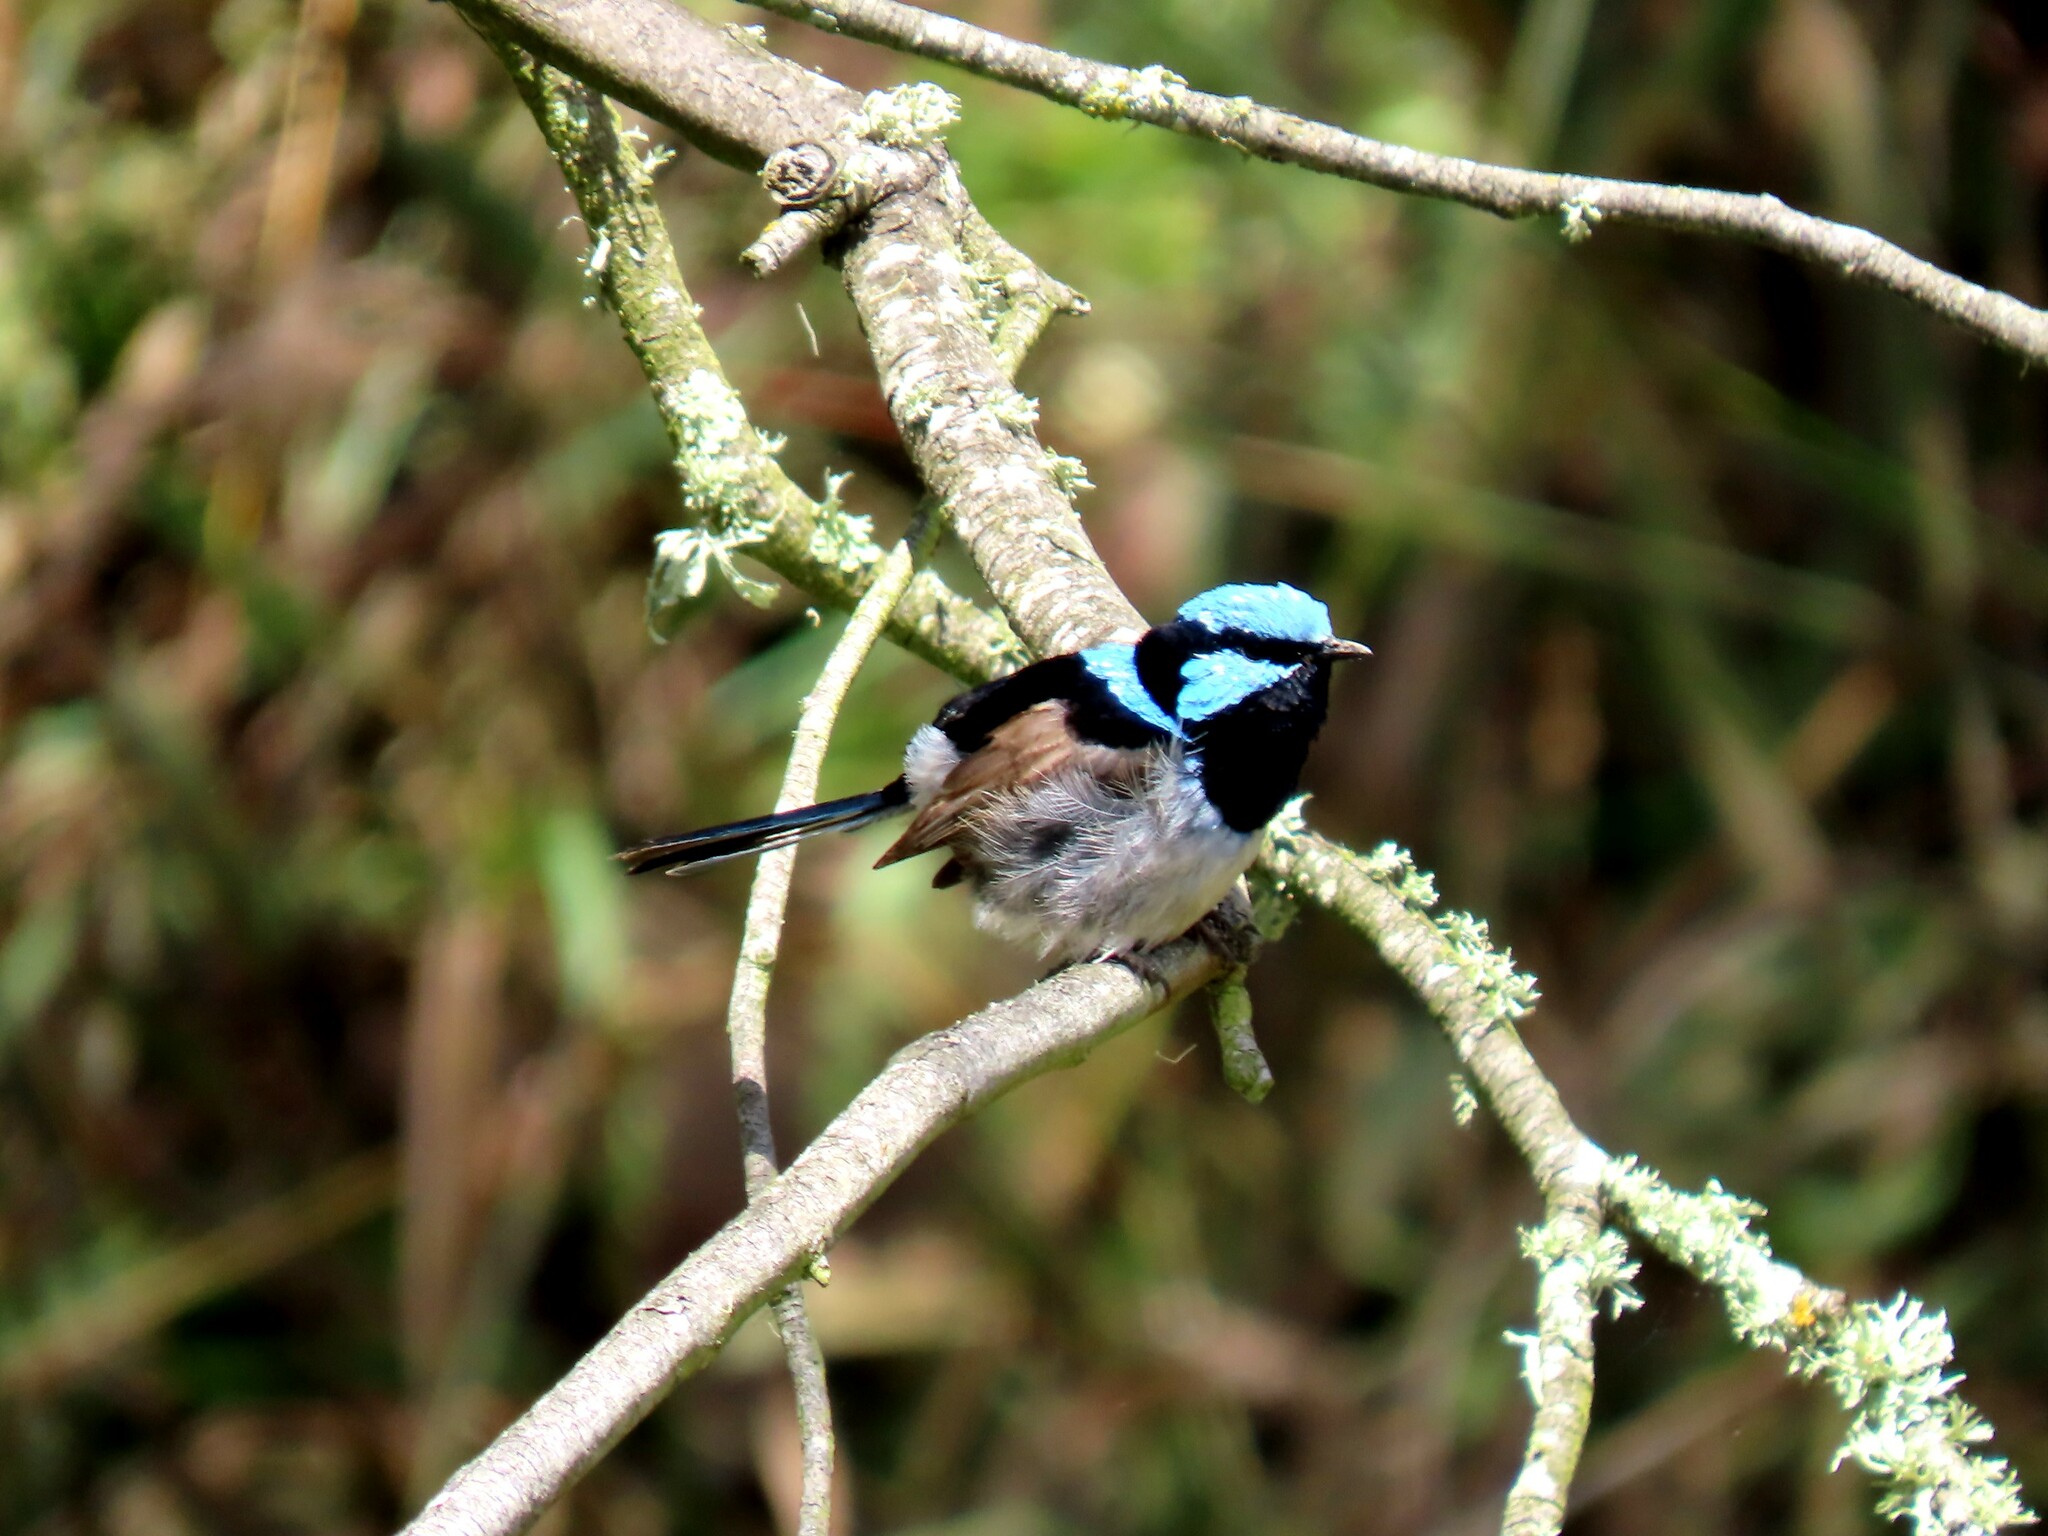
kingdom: Animalia
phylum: Chordata
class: Aves
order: Passeriformes
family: Maluridae
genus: Malurus
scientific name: Malurus cyaneus
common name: Superb fairywren
